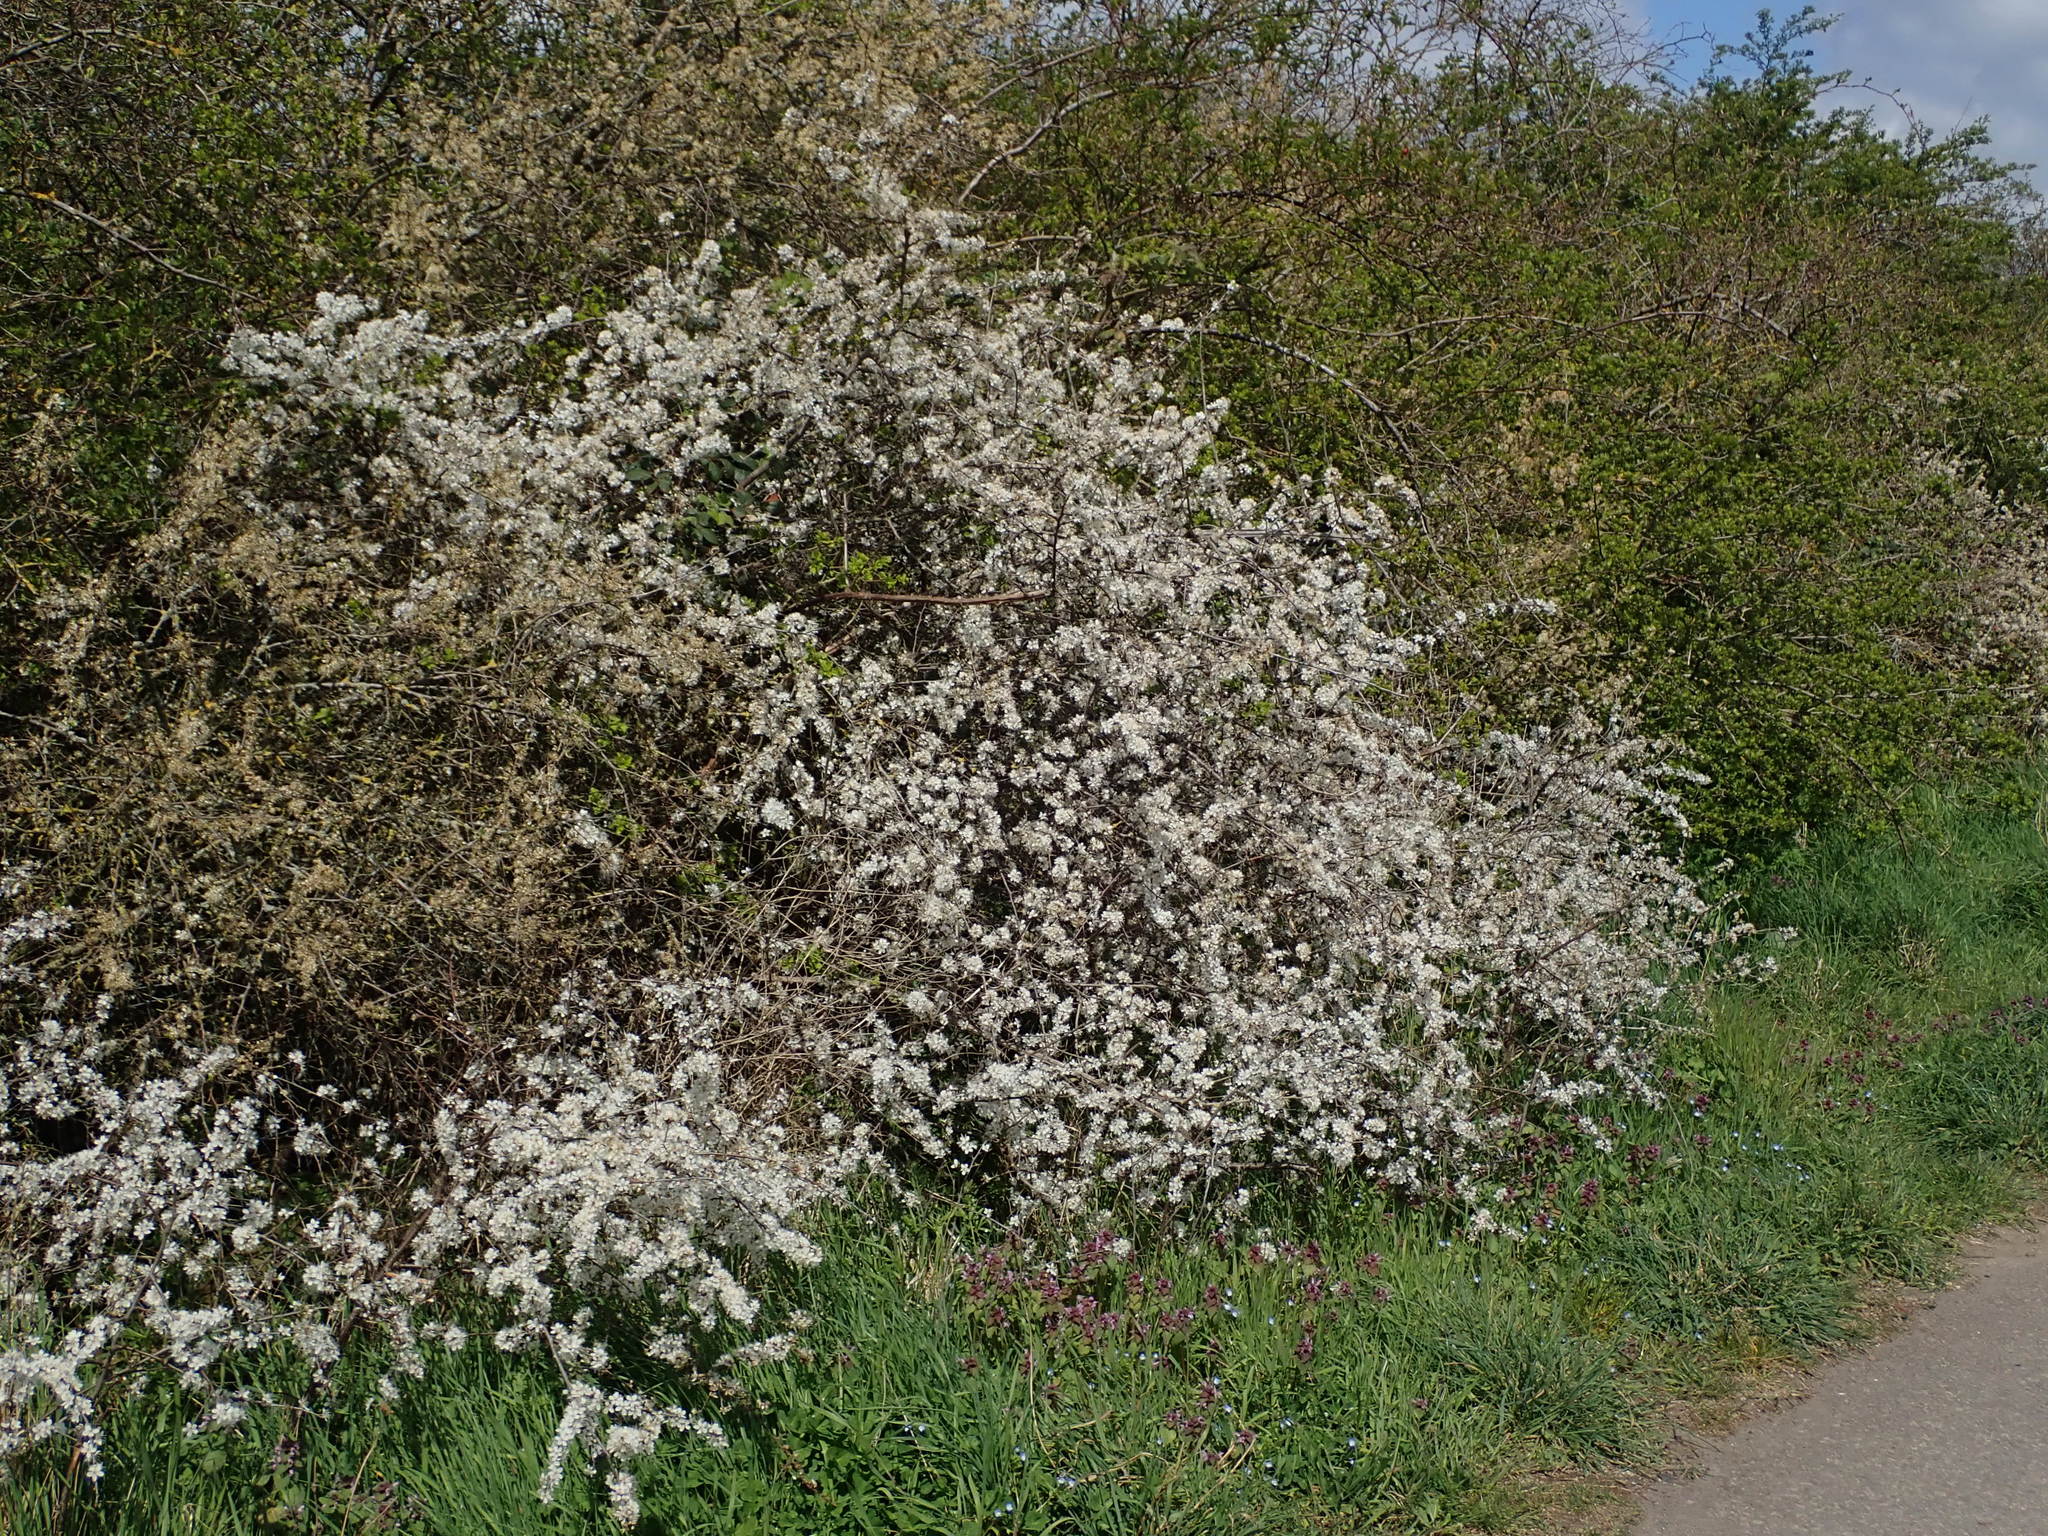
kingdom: Plantae
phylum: Tracheophyta
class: Magnoliopsida
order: Rosales
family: Rosaceae
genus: Prunus
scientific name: Prunus spinosa
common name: Blackthorn
